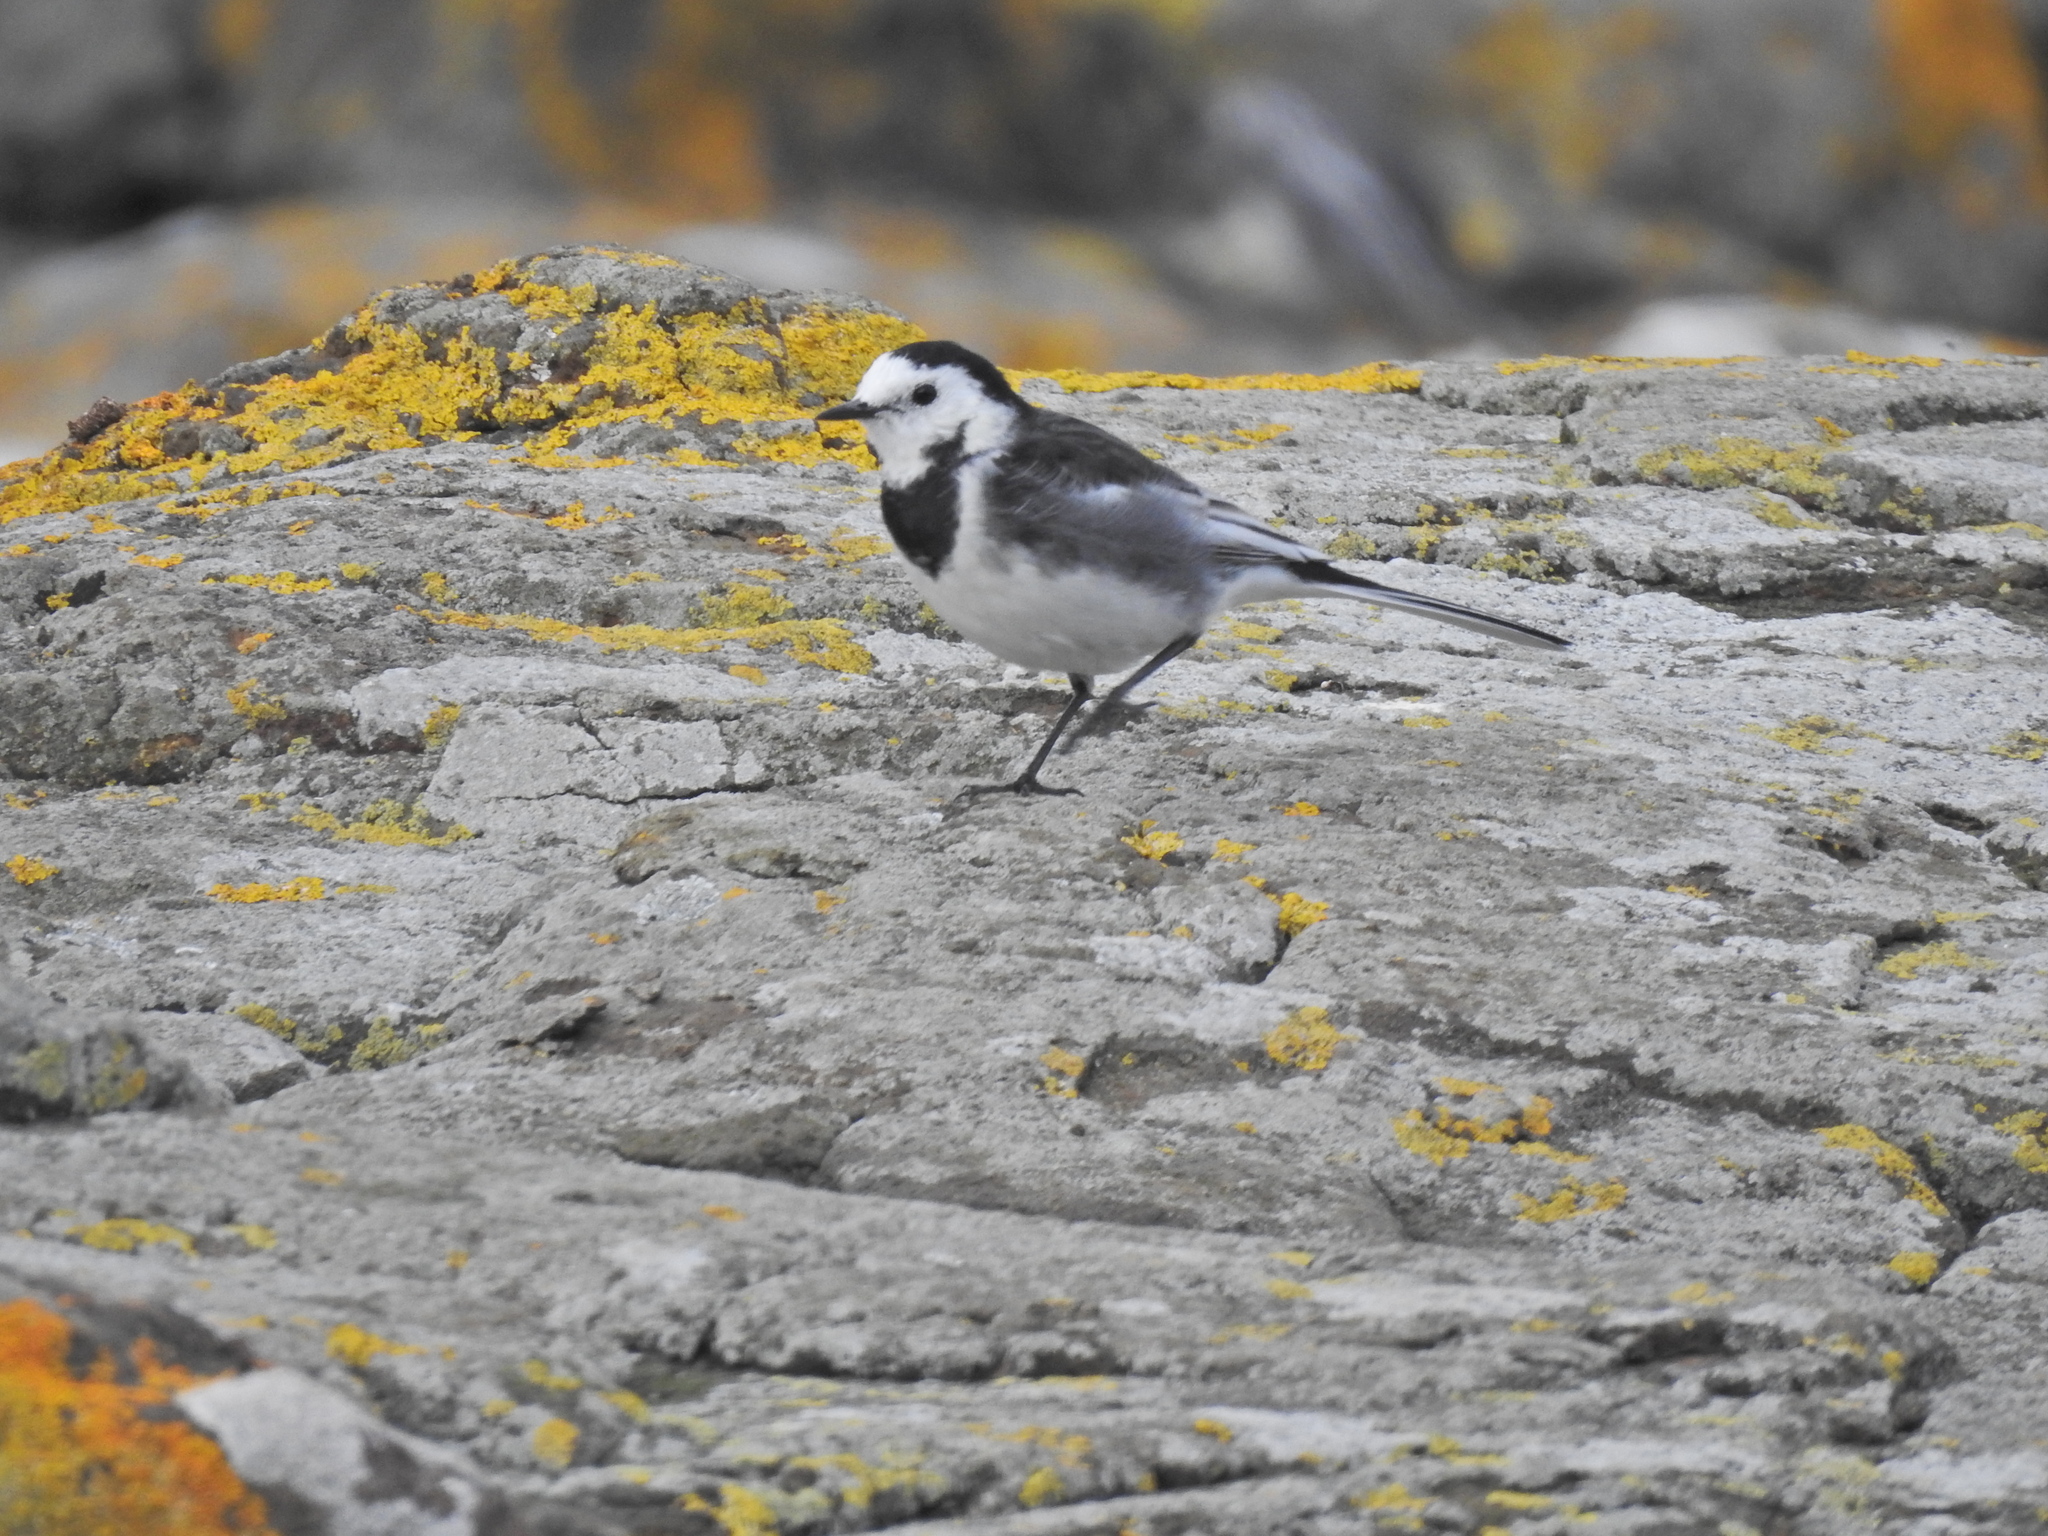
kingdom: Animalia
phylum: Chordata
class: Aves
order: Passeriformes
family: Motacillidae
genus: Motacilla
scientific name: Motacilla alba
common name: White wagtail
